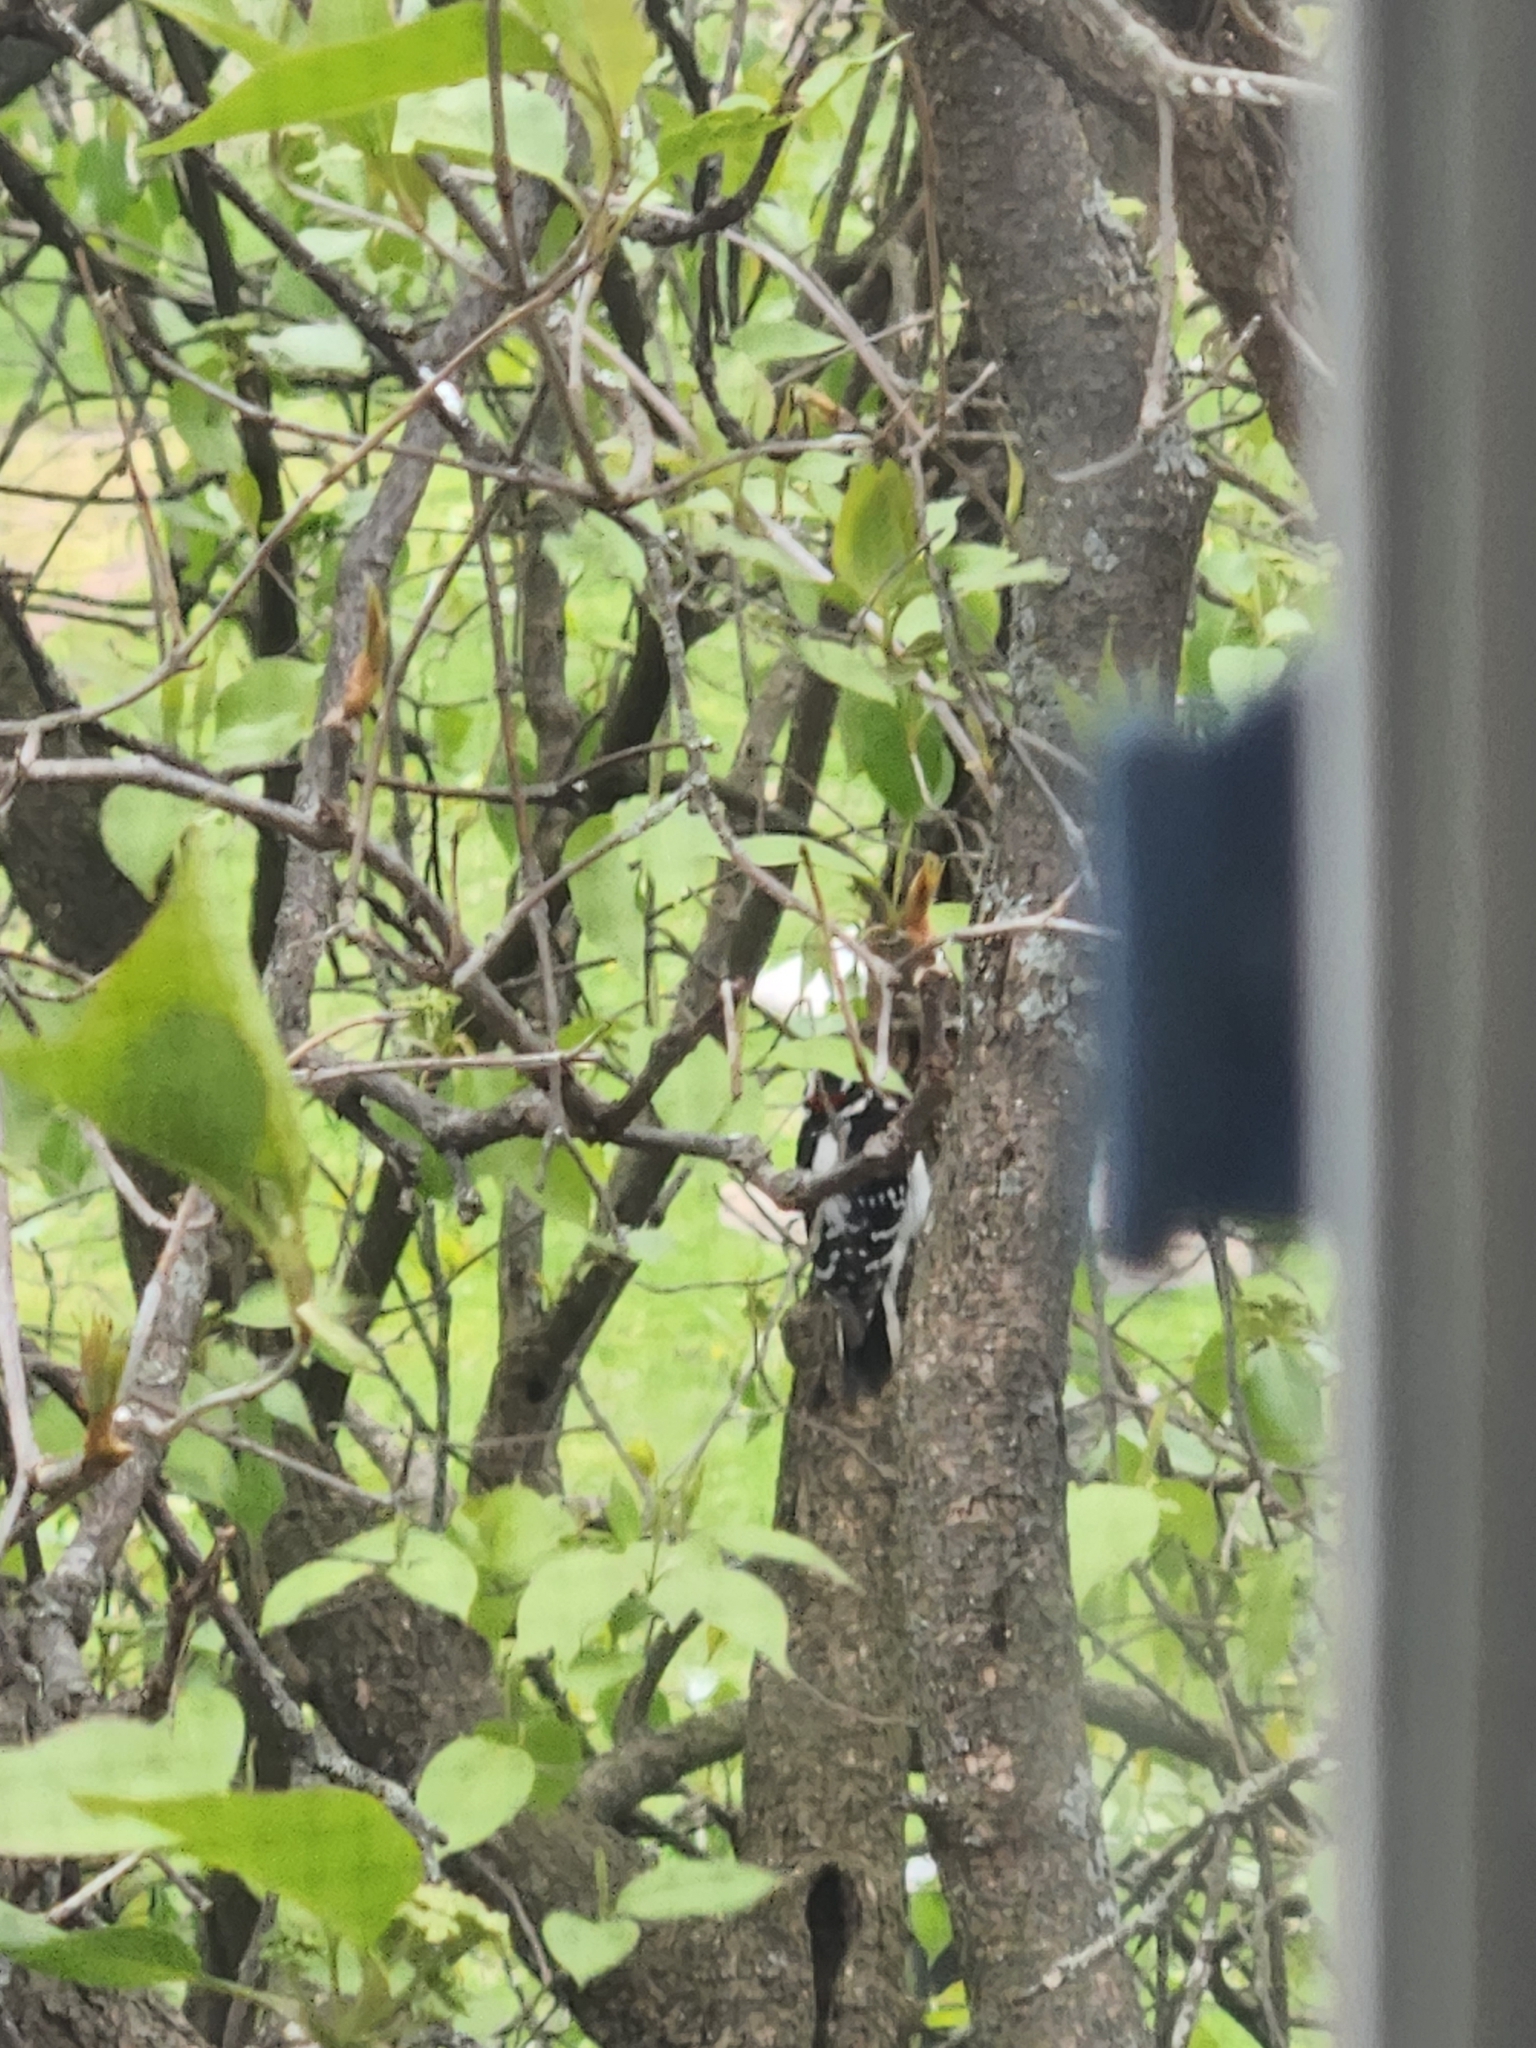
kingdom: Animalia
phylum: Chordata
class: Aves
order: Piciformes
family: Picidae
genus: Dryobates
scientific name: Dryobates pubescens
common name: Downy woodpecker
